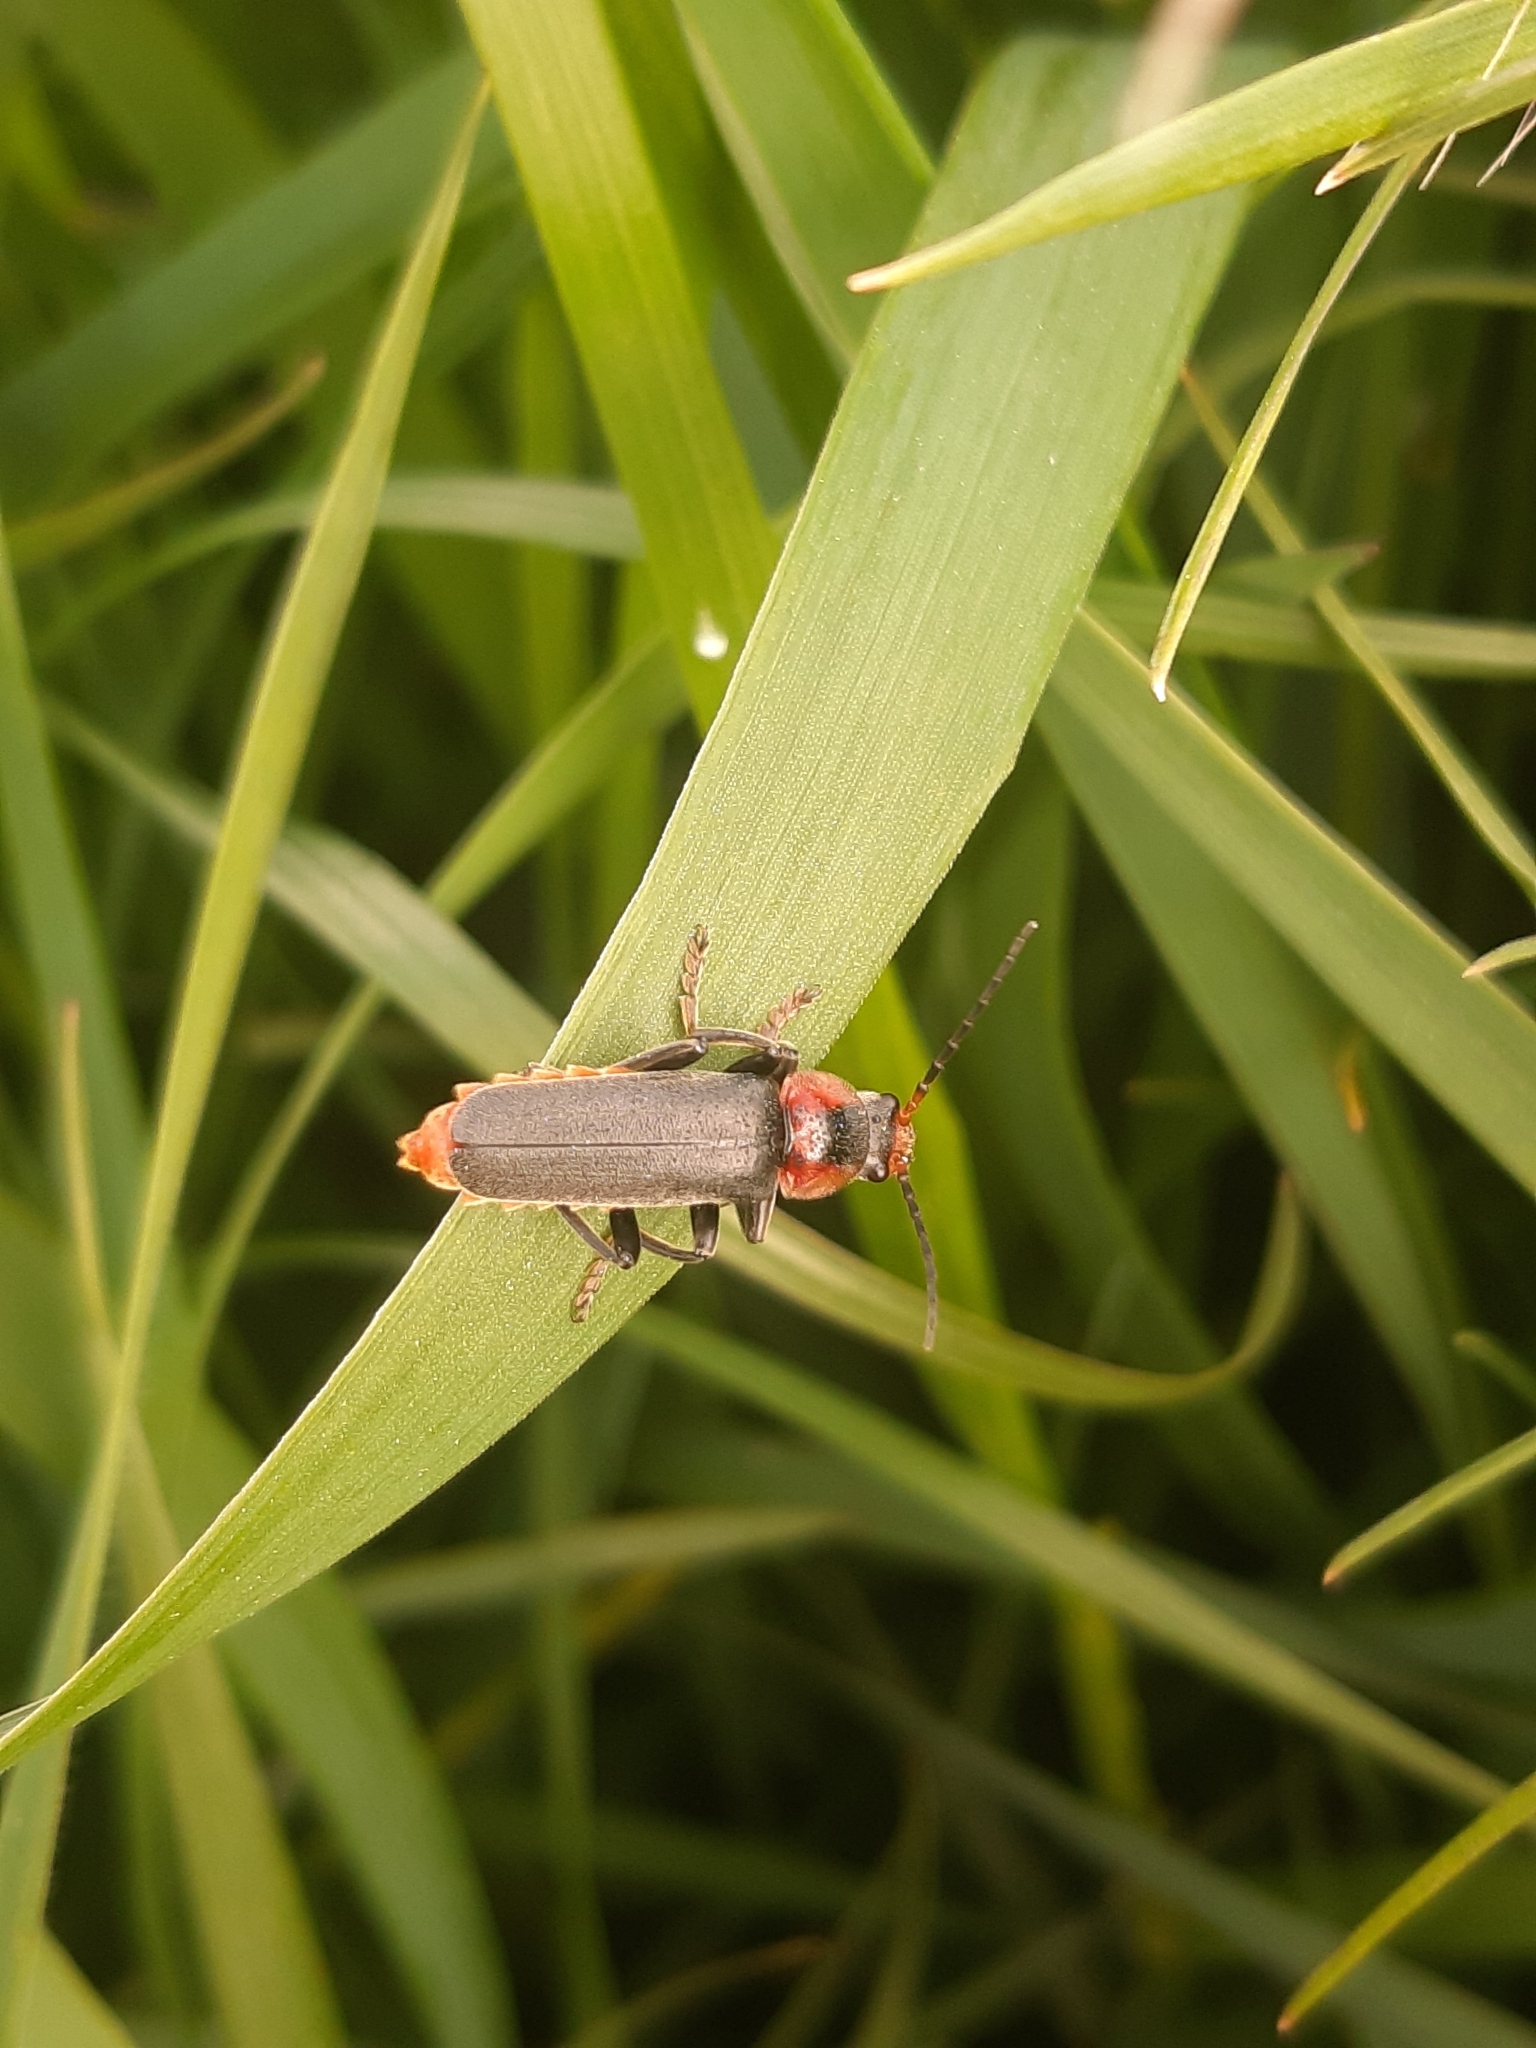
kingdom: Animalia
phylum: Arthropoda
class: Insecta
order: Coleoptera
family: Cantharidae
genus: Cantharis
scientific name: Cantharis fusca
